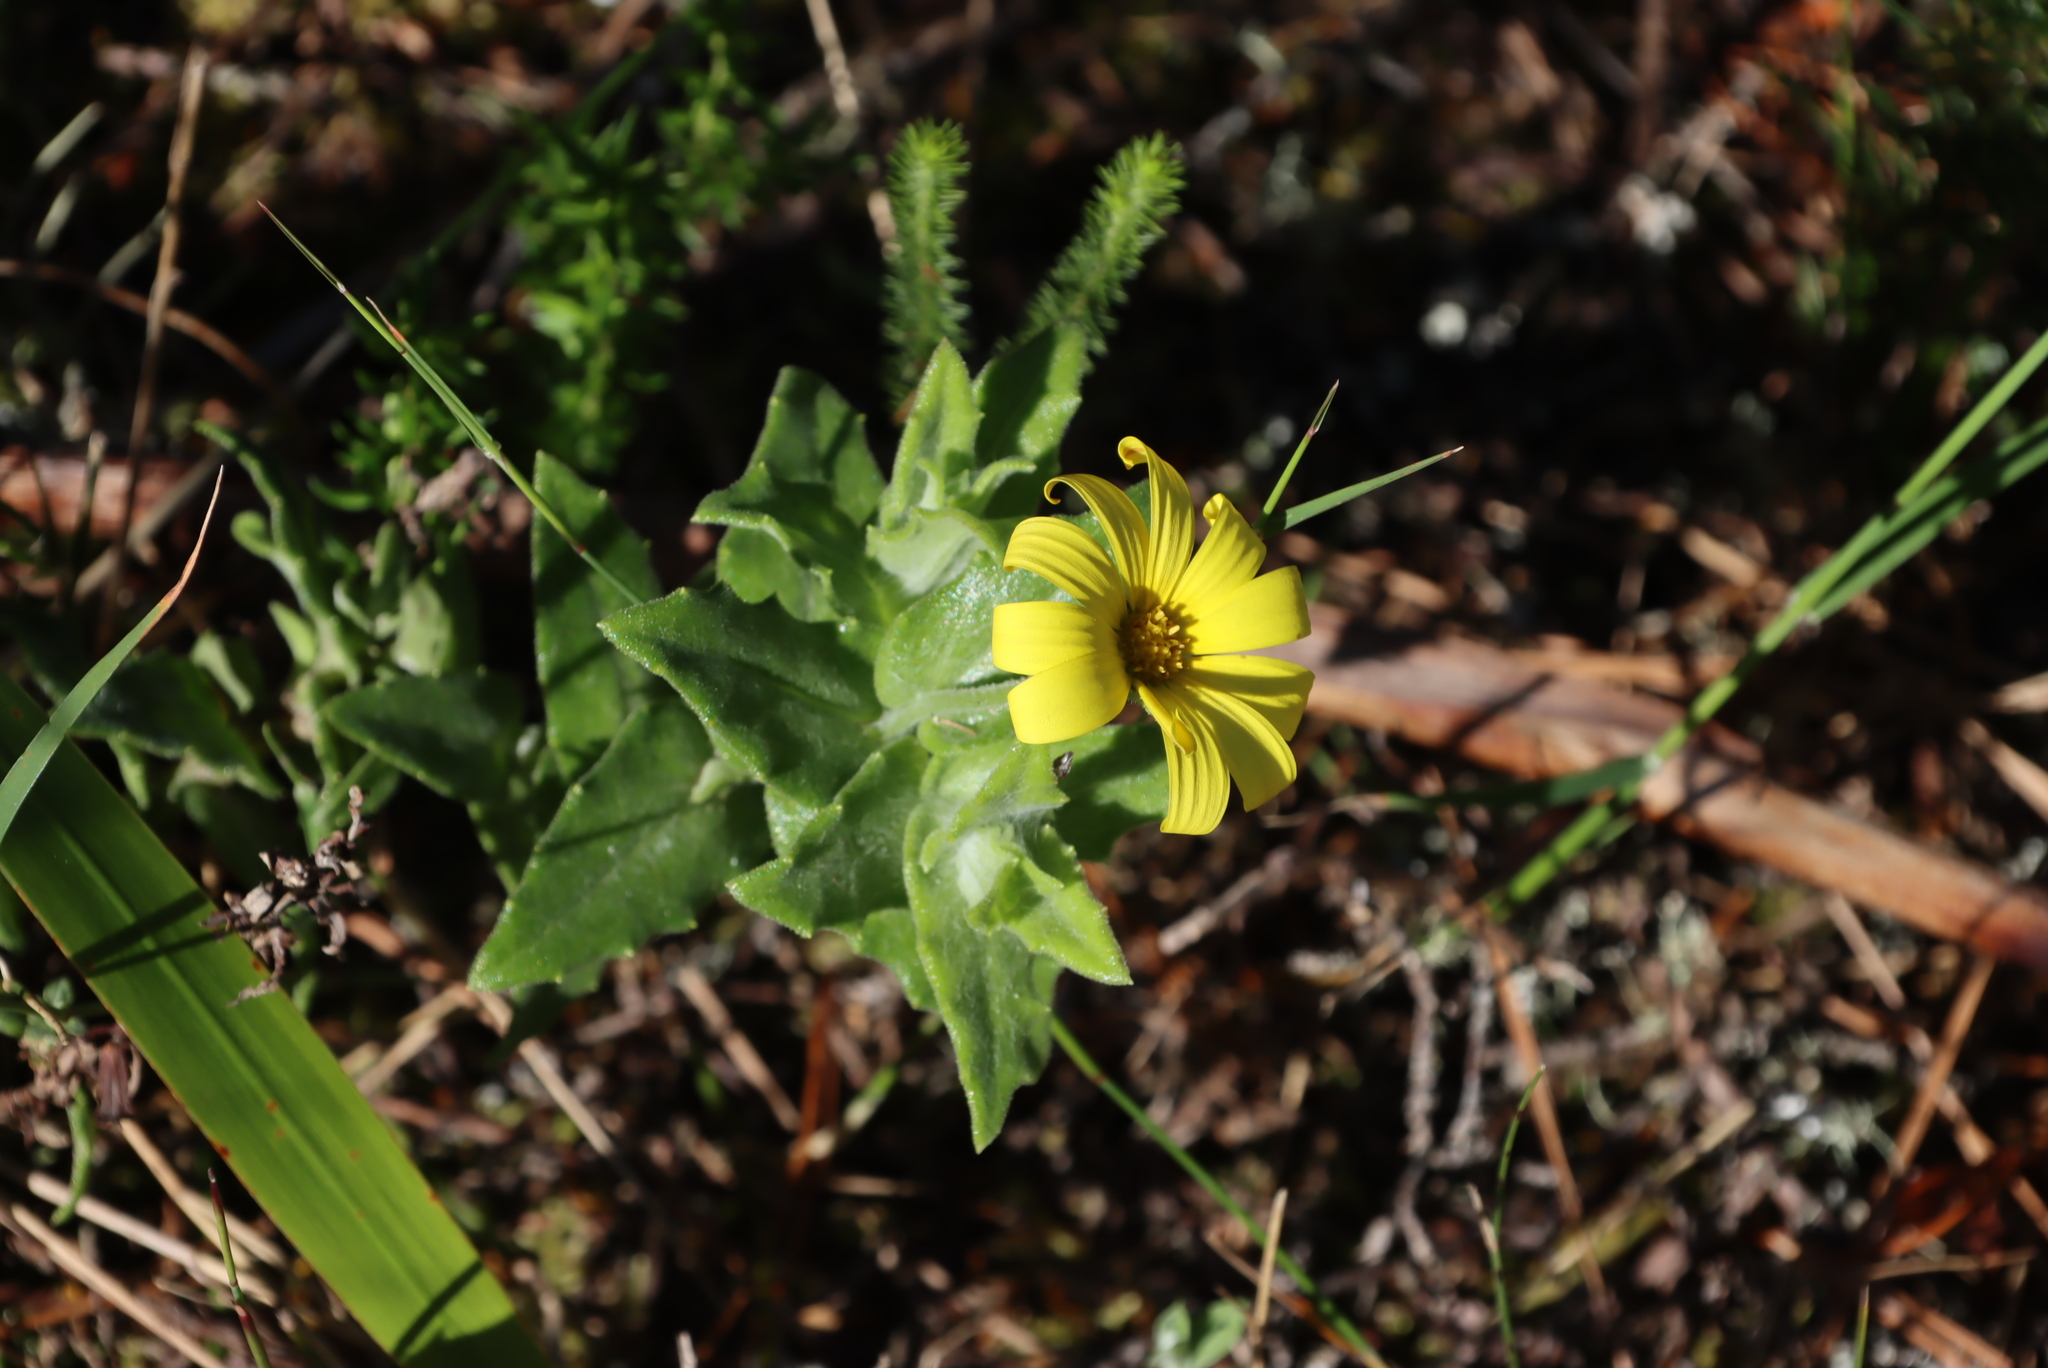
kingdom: Plantae
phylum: Tracheophyta
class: Magnoliopsida
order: Asterales
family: Asteraceae
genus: Osteospermum
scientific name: Osteospermum ilicifolium
